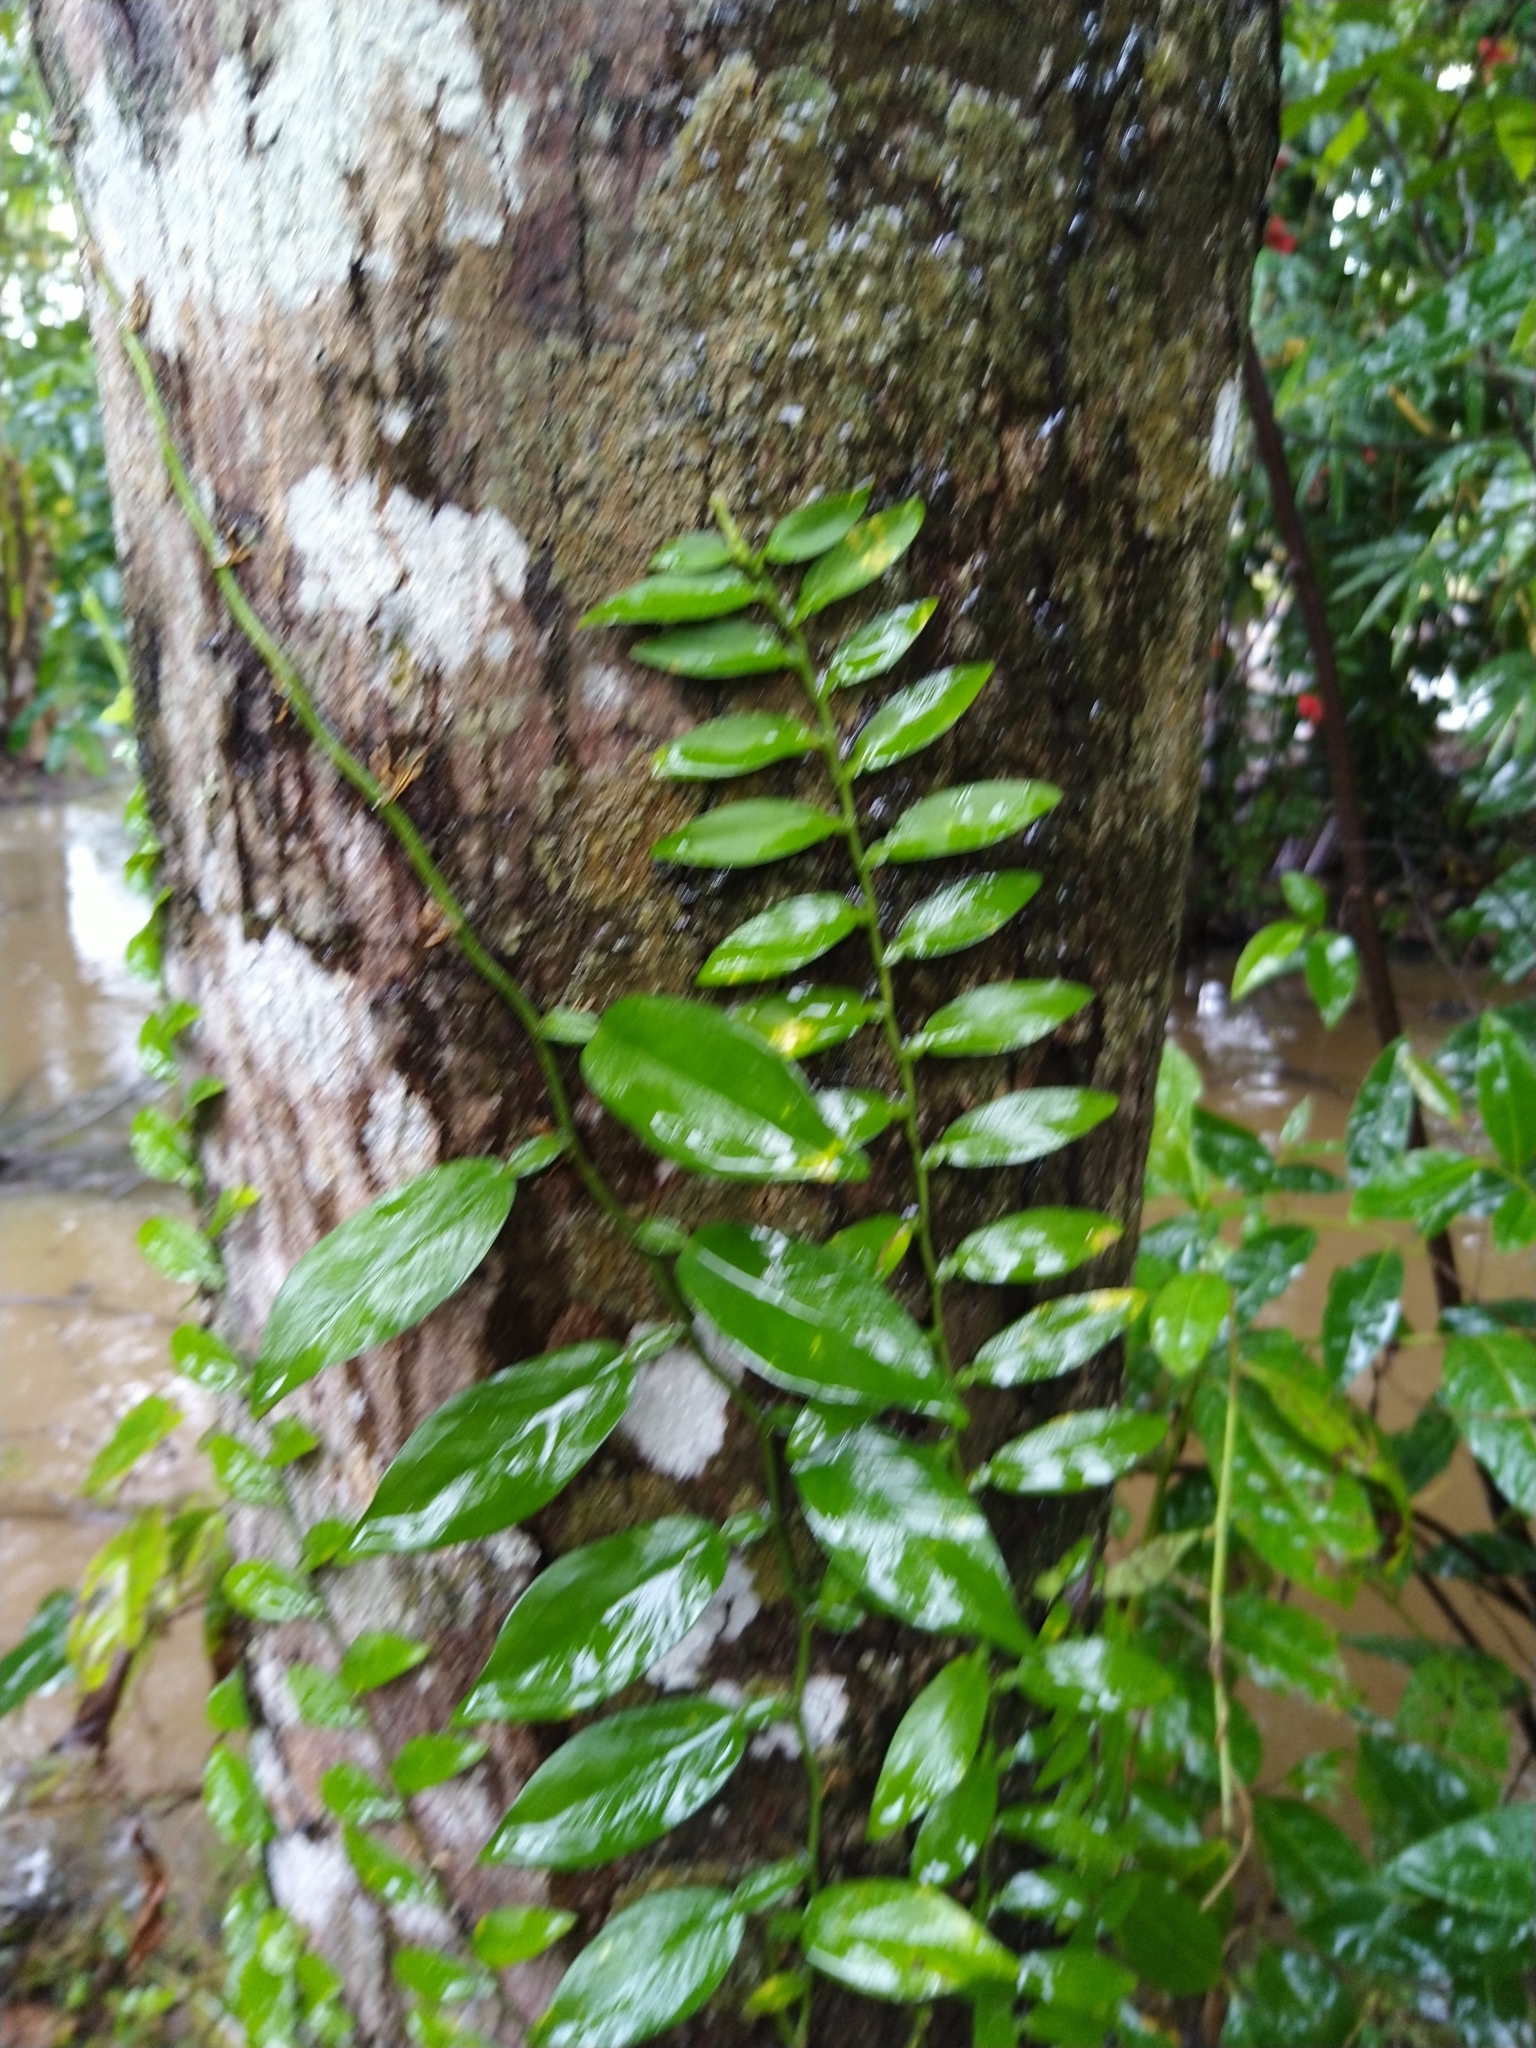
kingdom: Plantae
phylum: Tracheophyta
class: Liliopsida
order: Alismatales
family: Araceae
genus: Pothos
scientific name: Pothos chinensis
